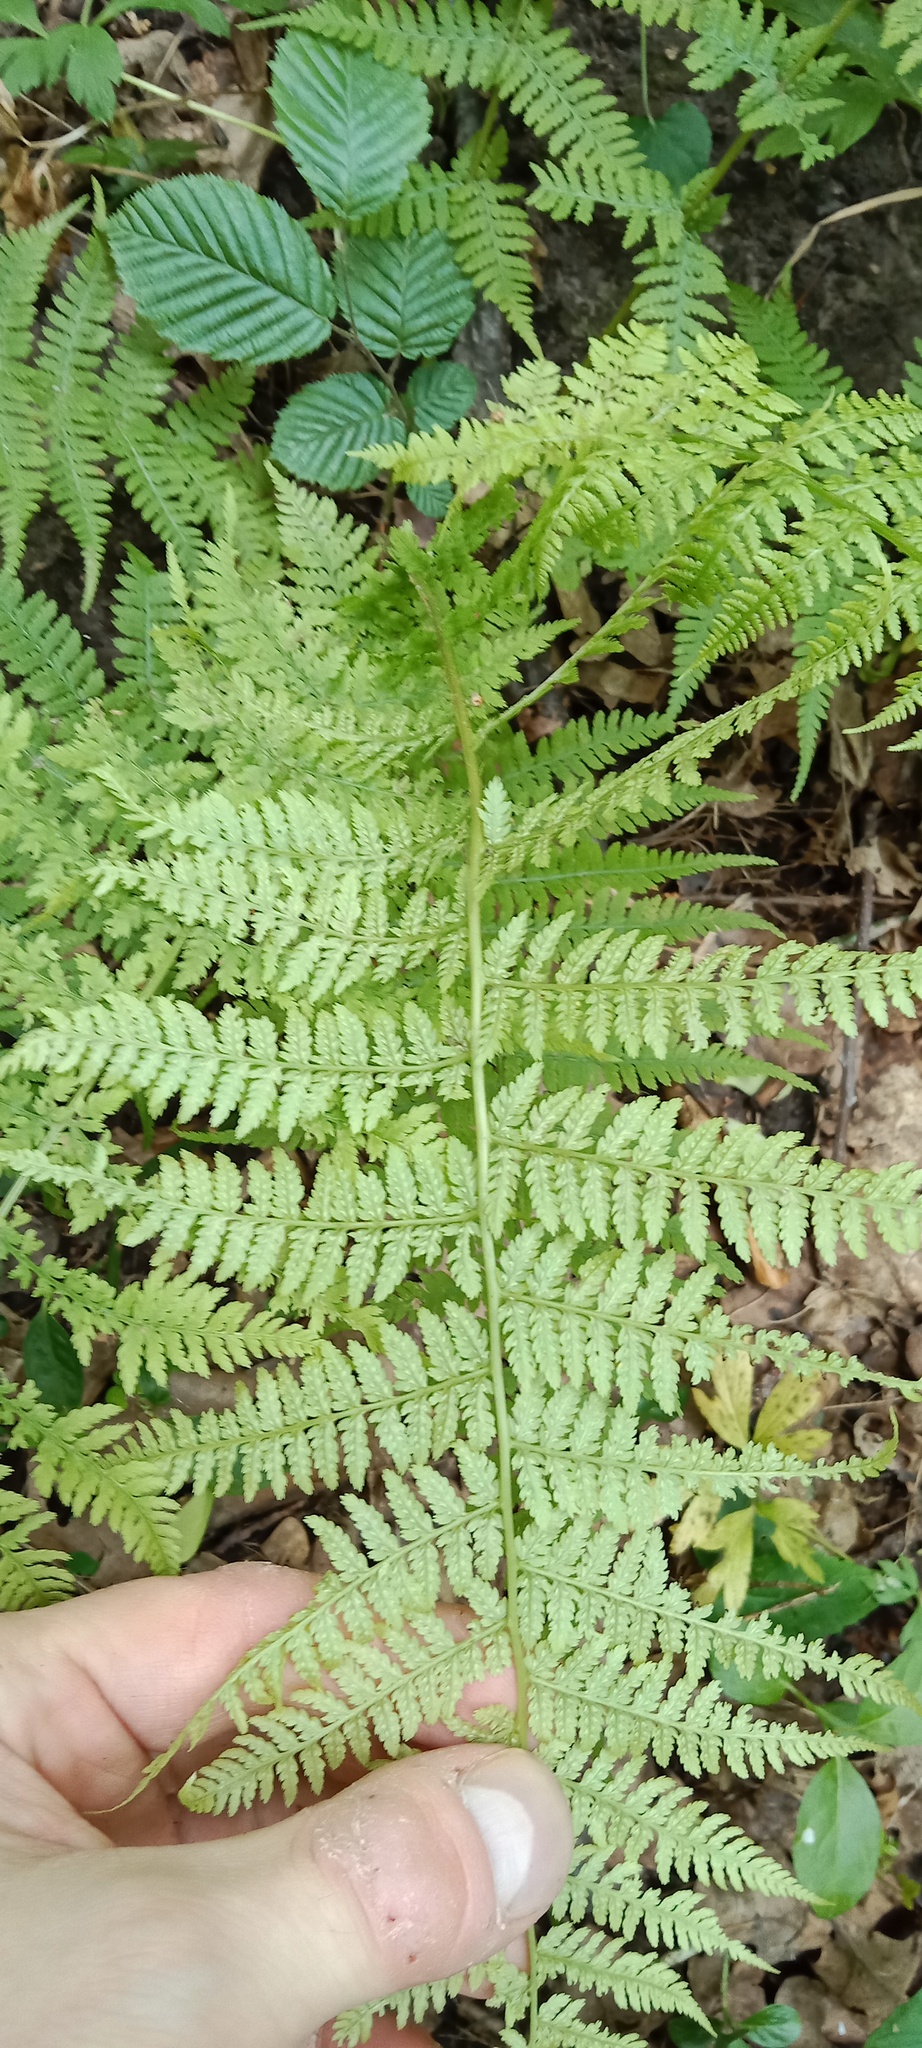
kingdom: Plantae
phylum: Tracheophyta
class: Polypodiopsida
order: Polypodiales
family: Athyriaceae
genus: Athyrium
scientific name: Athyrium filix-femina
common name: Lady fern
